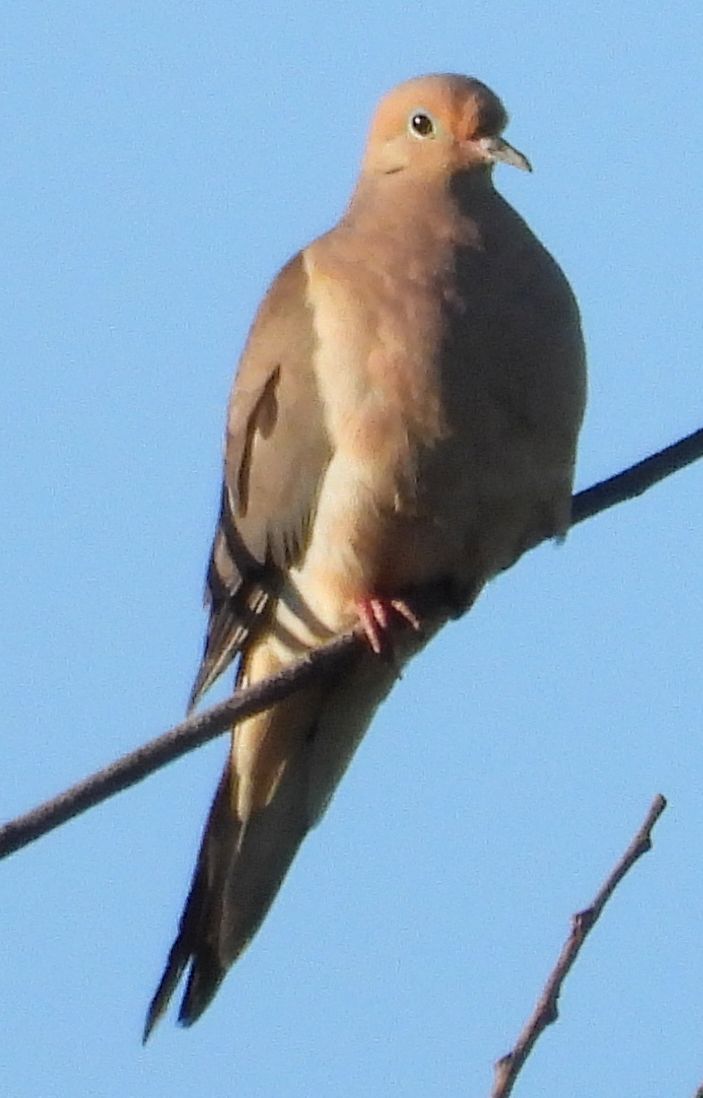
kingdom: Animalia
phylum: Chordata
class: Aves
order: Columbiformes
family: Columbidae
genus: Zenaida
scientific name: Zenaida macroura
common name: Mourning dove
